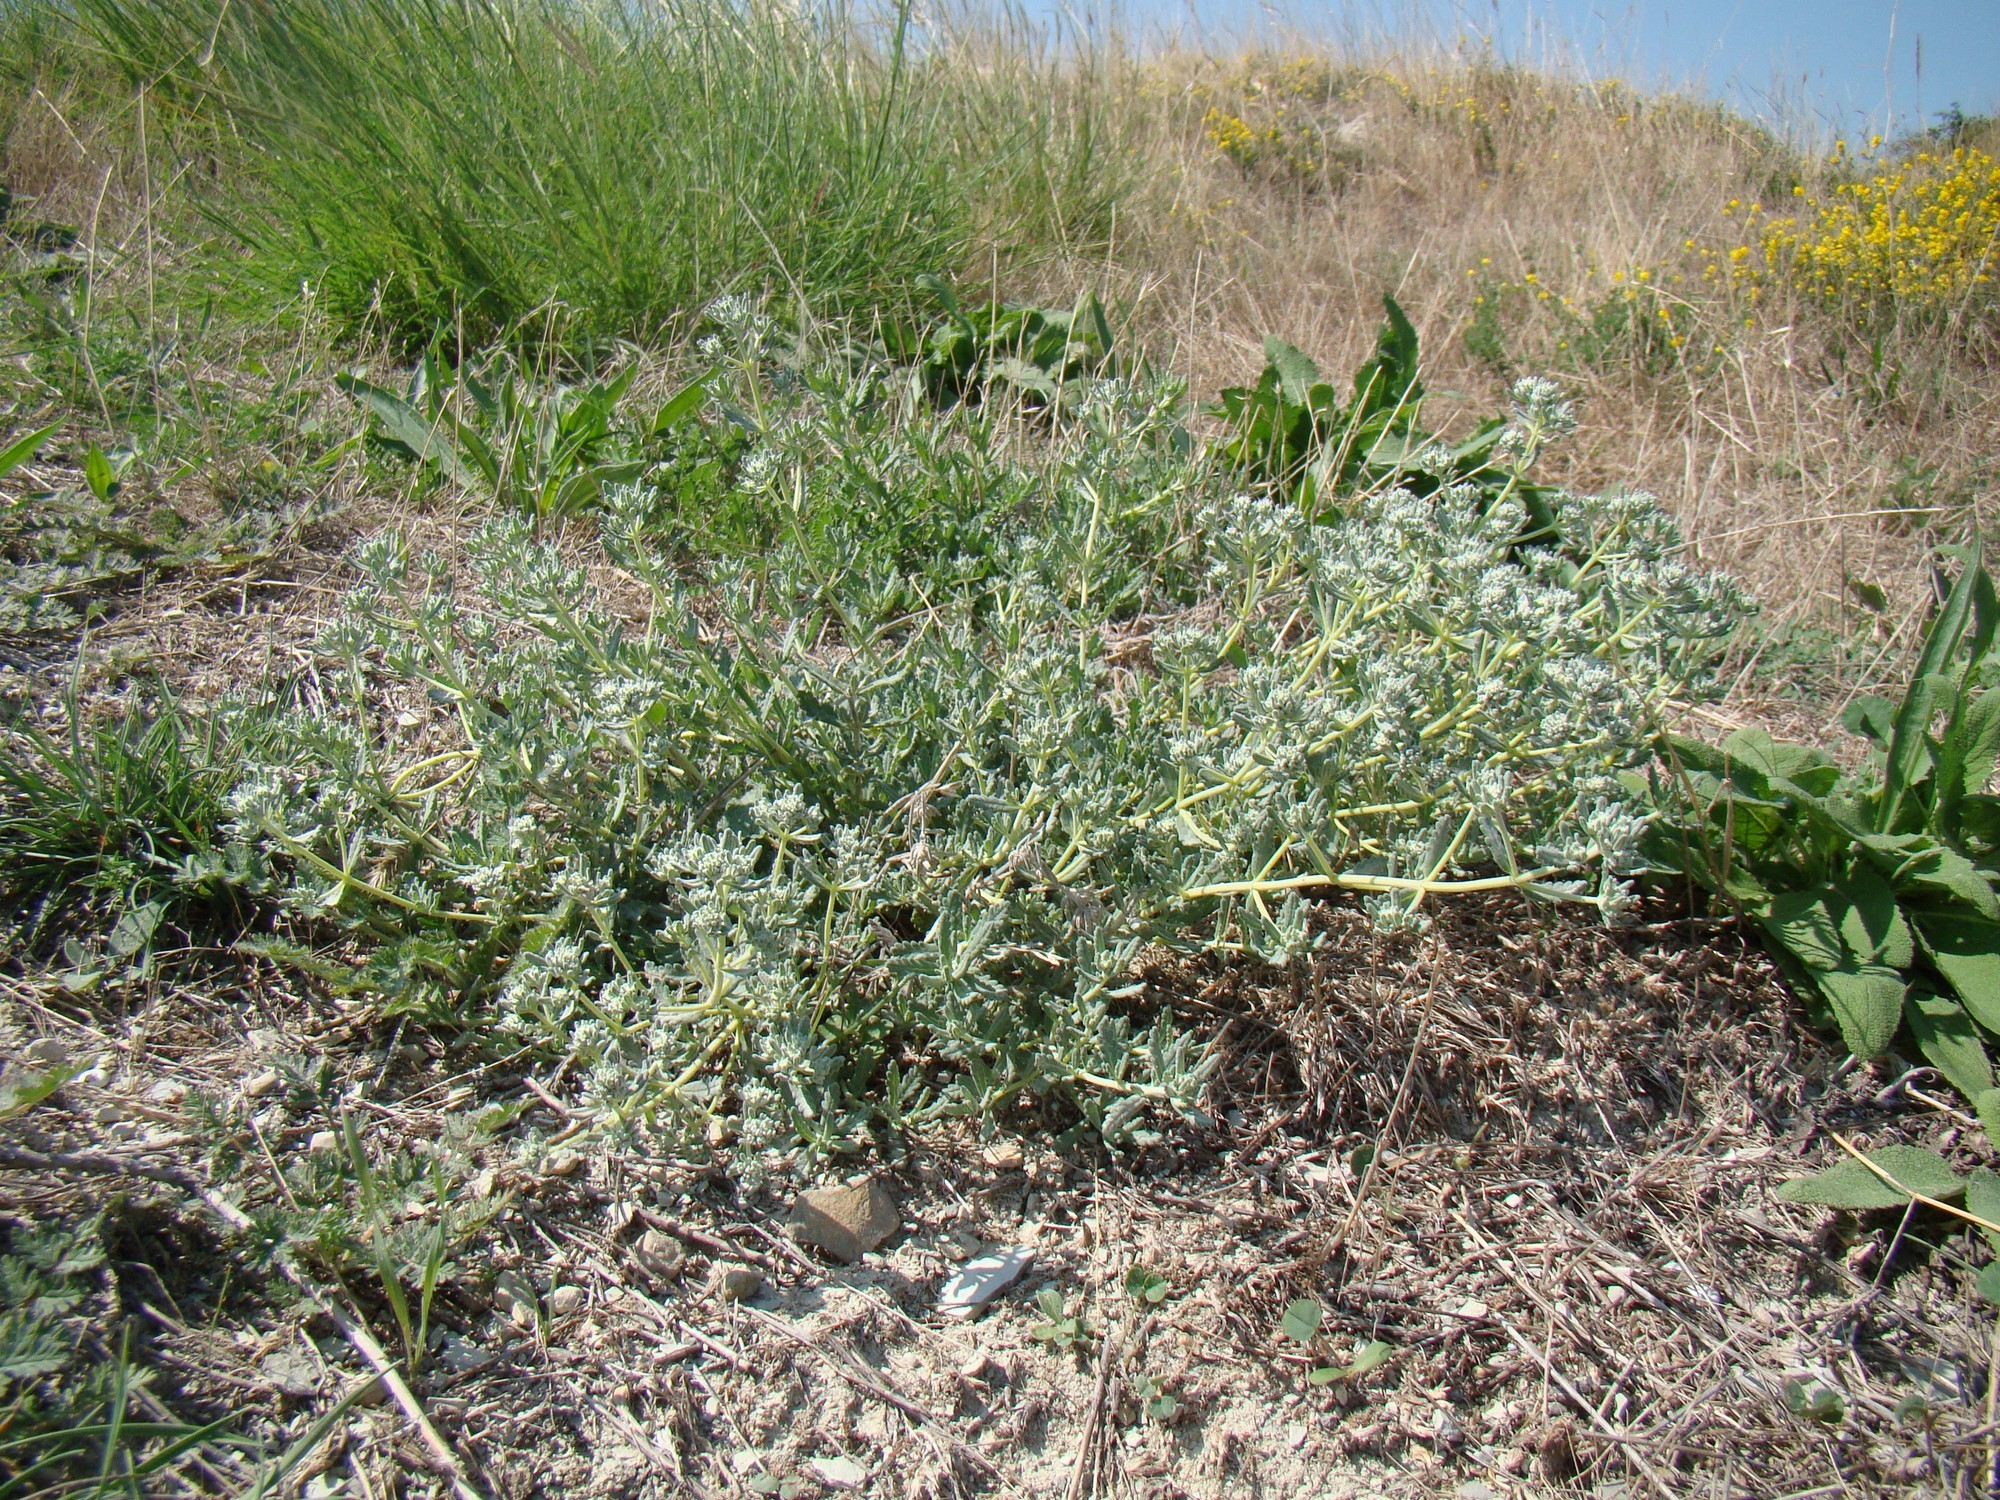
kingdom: Plantae
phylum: Tracheophyta
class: Magnoliopsida
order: Lamiales
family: Lamiaceae
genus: Teucrium
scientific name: Teucrium polium
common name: Poley
